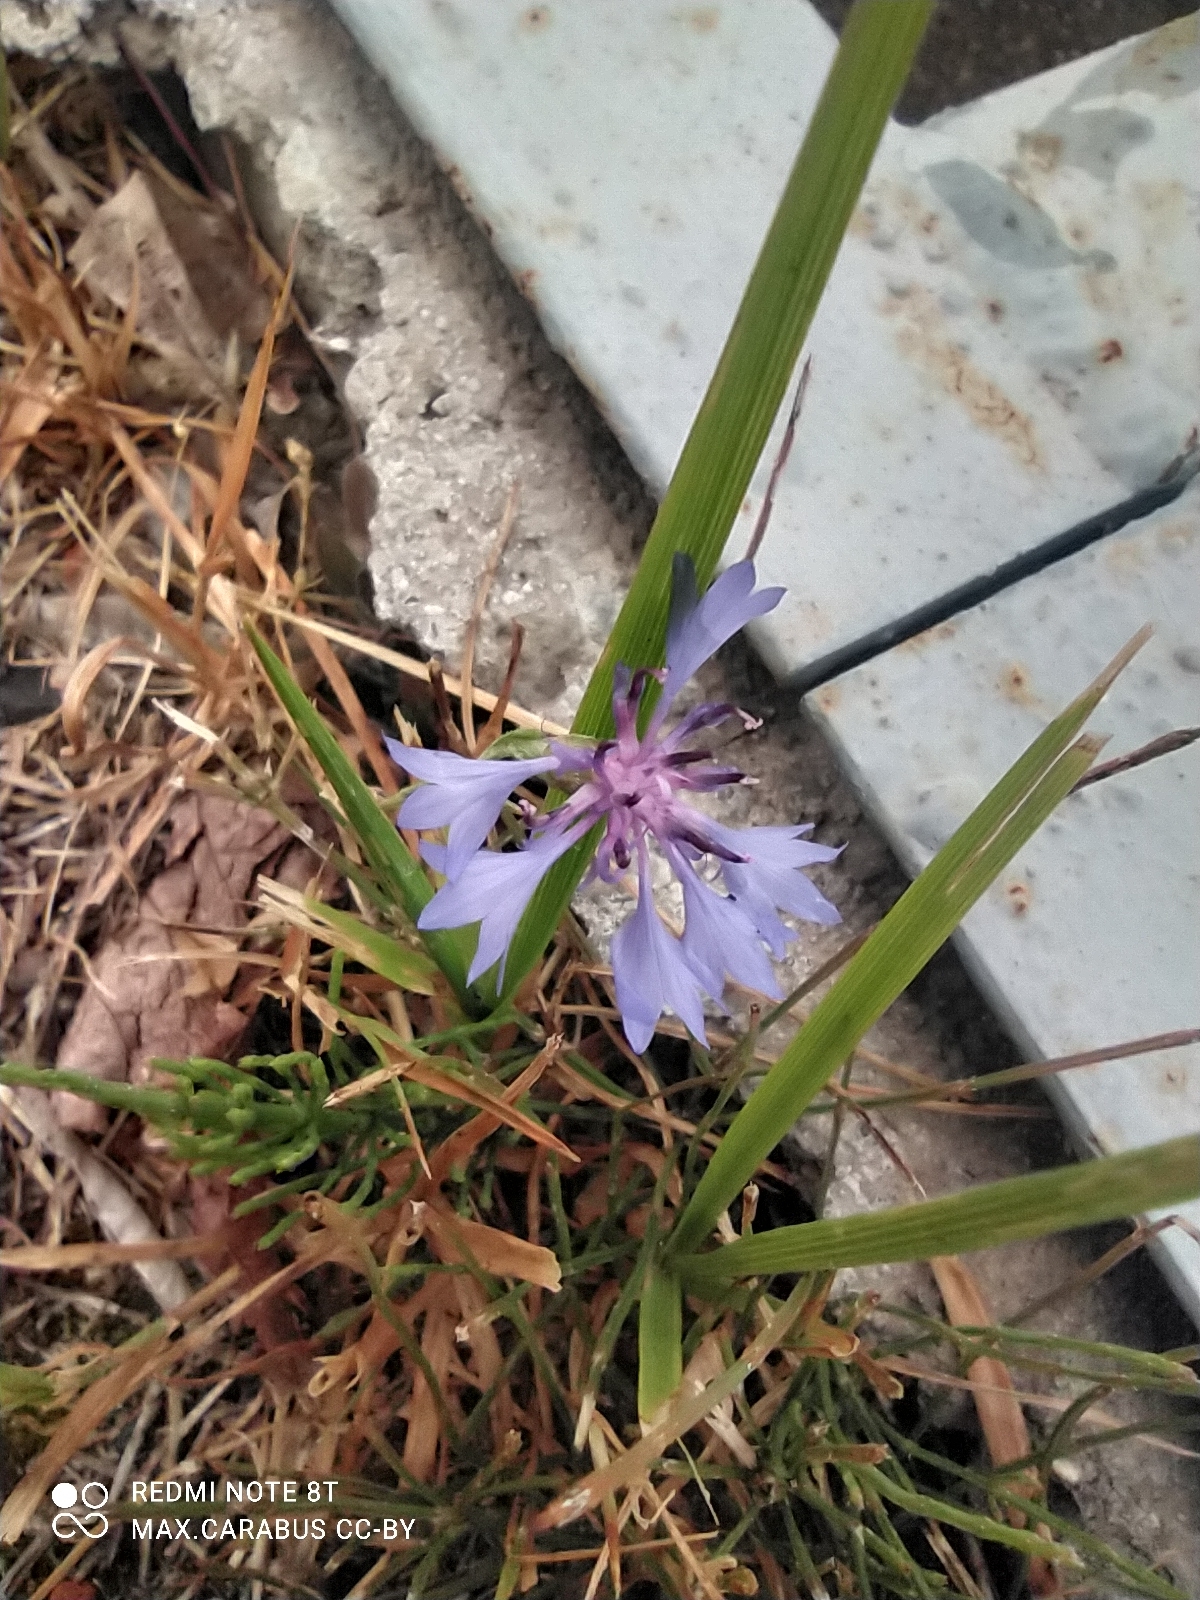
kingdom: Plantae
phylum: Tracheophyta
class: Magnoliopsida
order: Asterales
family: Asteraceae
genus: Centaurea
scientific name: Centaurea cyanus
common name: Cornflower
